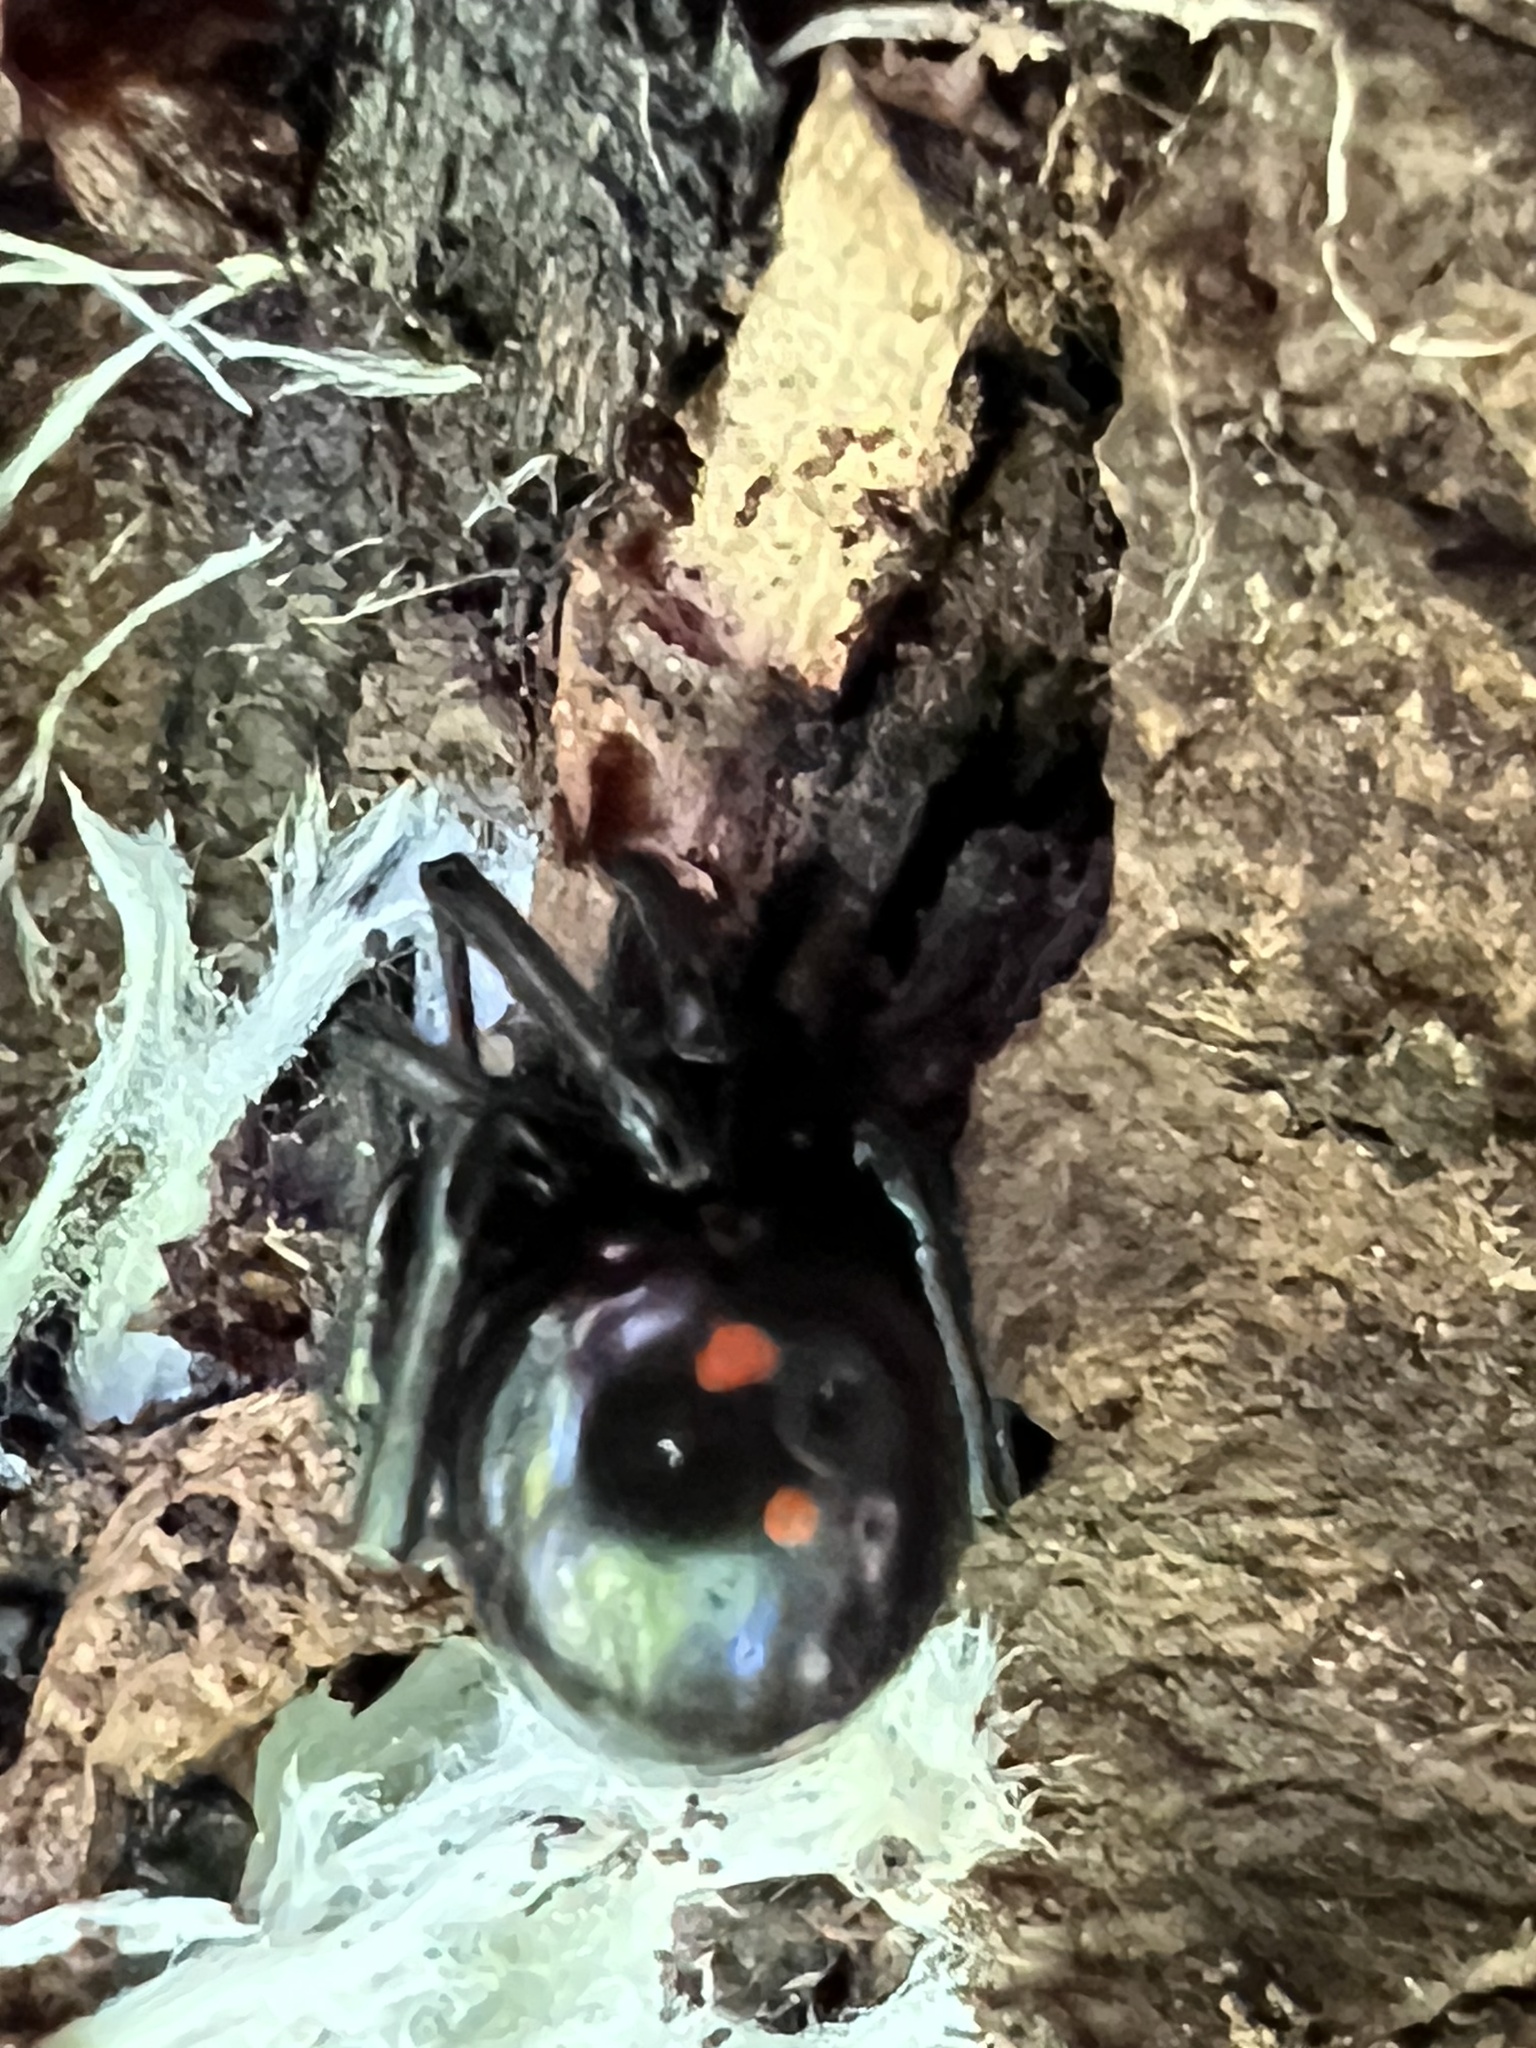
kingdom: Animalia
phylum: Arthropoda
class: Arachnida
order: Araneae
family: Theridiidae
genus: Latrodectus
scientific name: Latrodectus variolus
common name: Northern black widow
